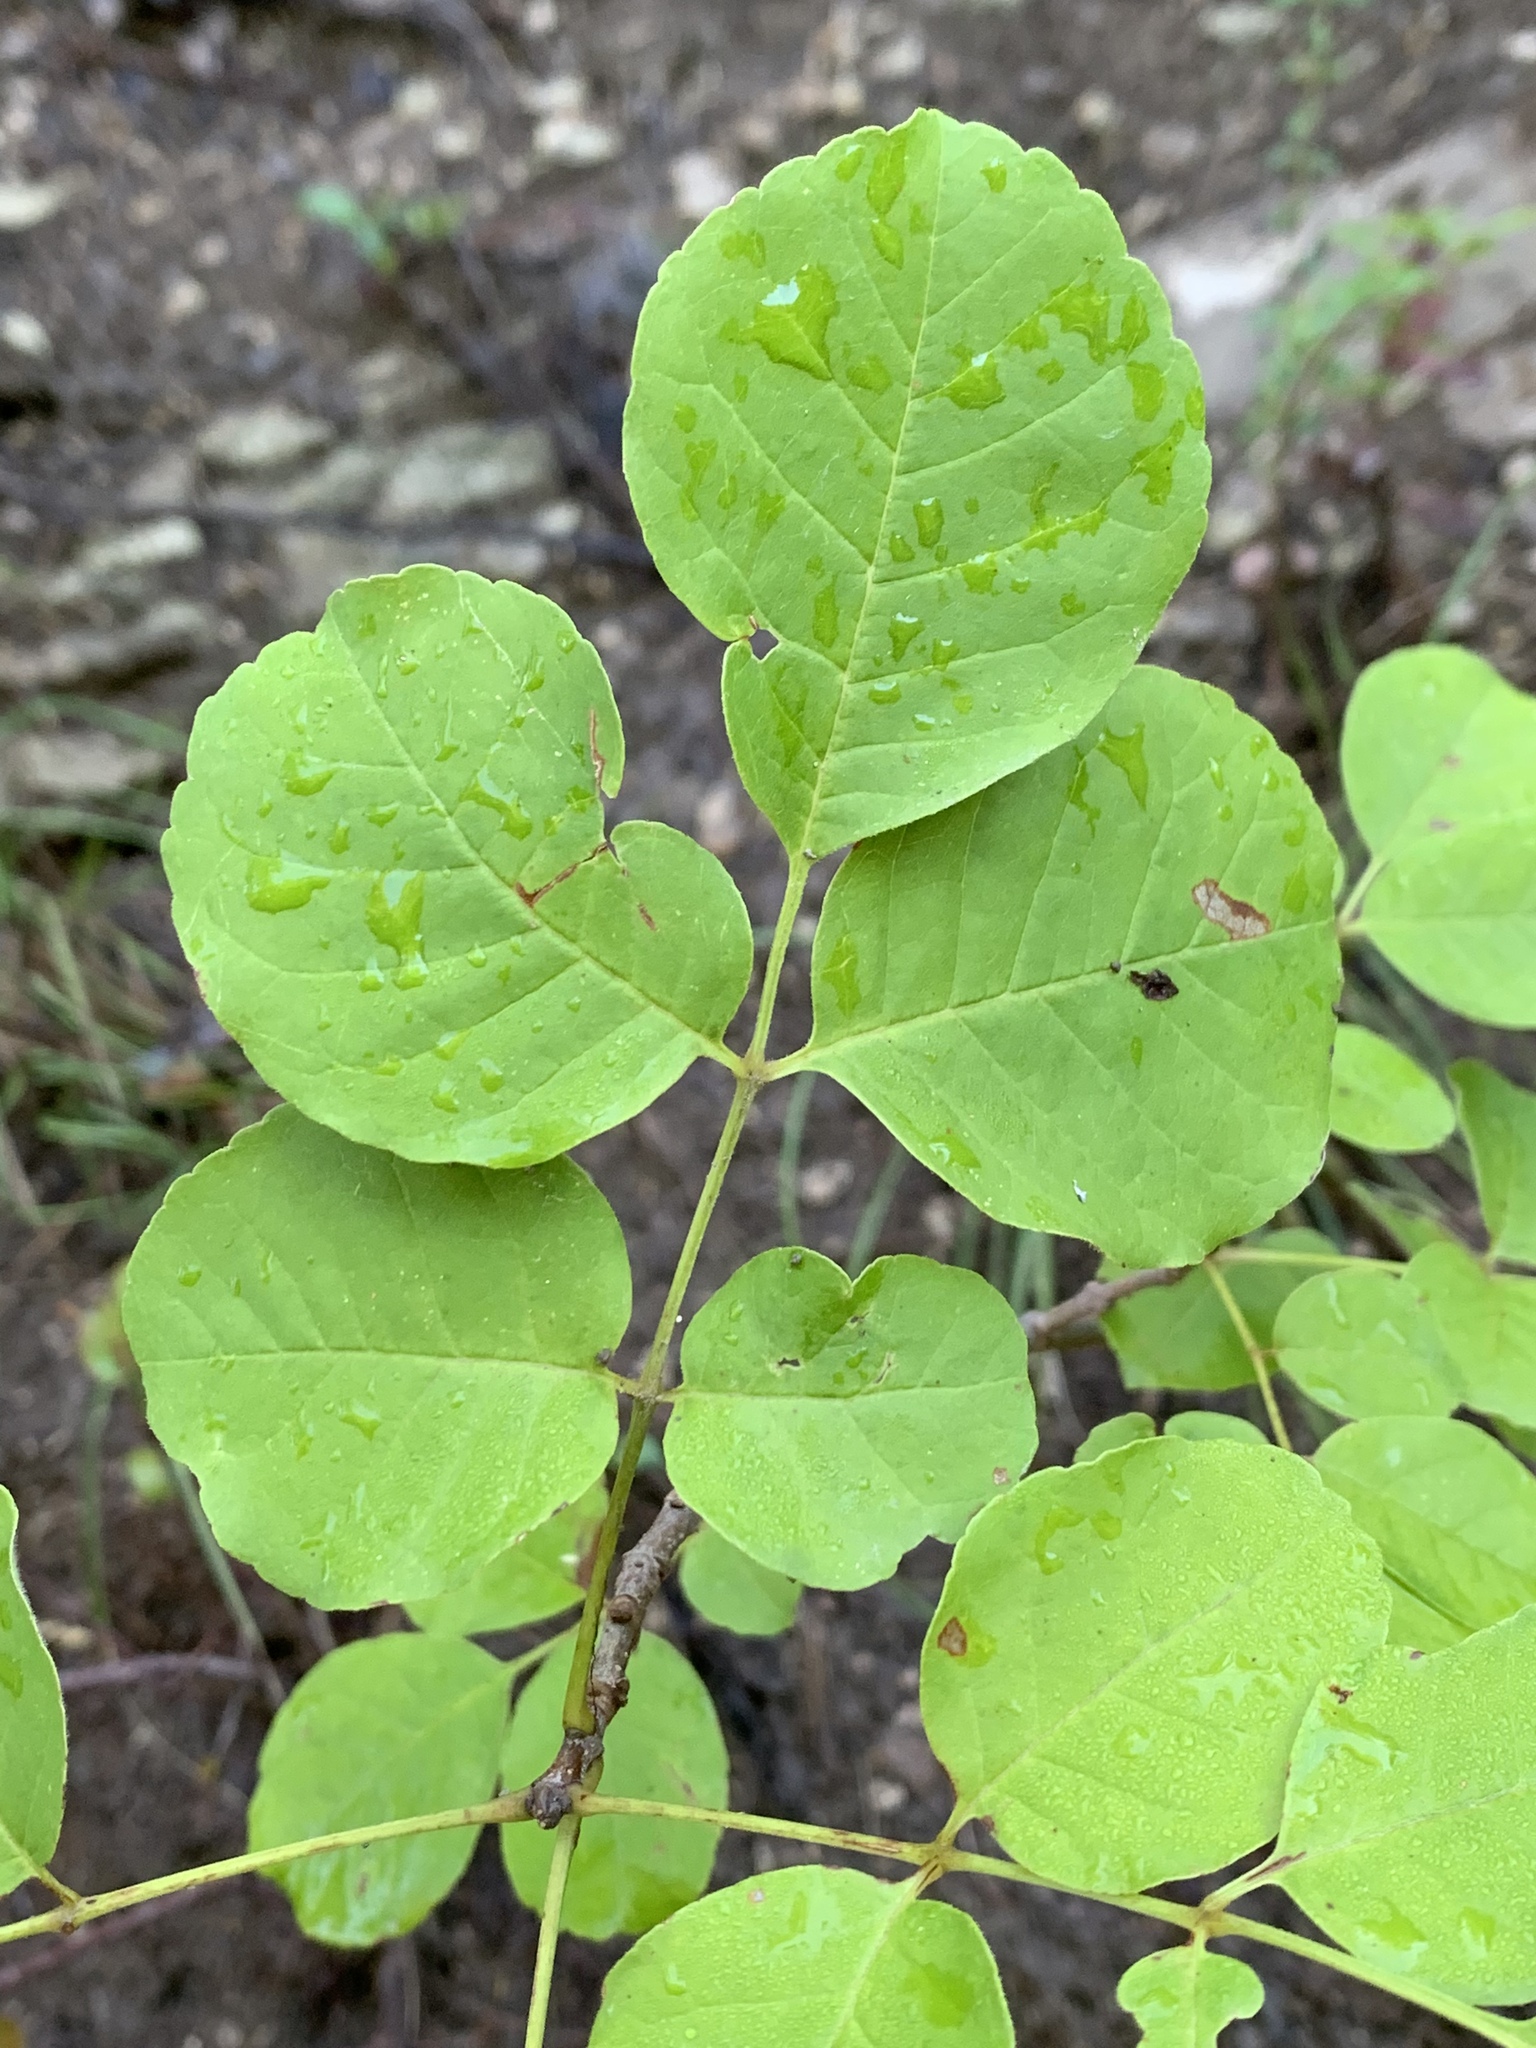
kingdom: Plantae
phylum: Tracheophyta
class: Magnoliopsida
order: Lamiales
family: Oleaceae
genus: Fraxinus
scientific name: Fraxinus albicans
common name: Texas ash
